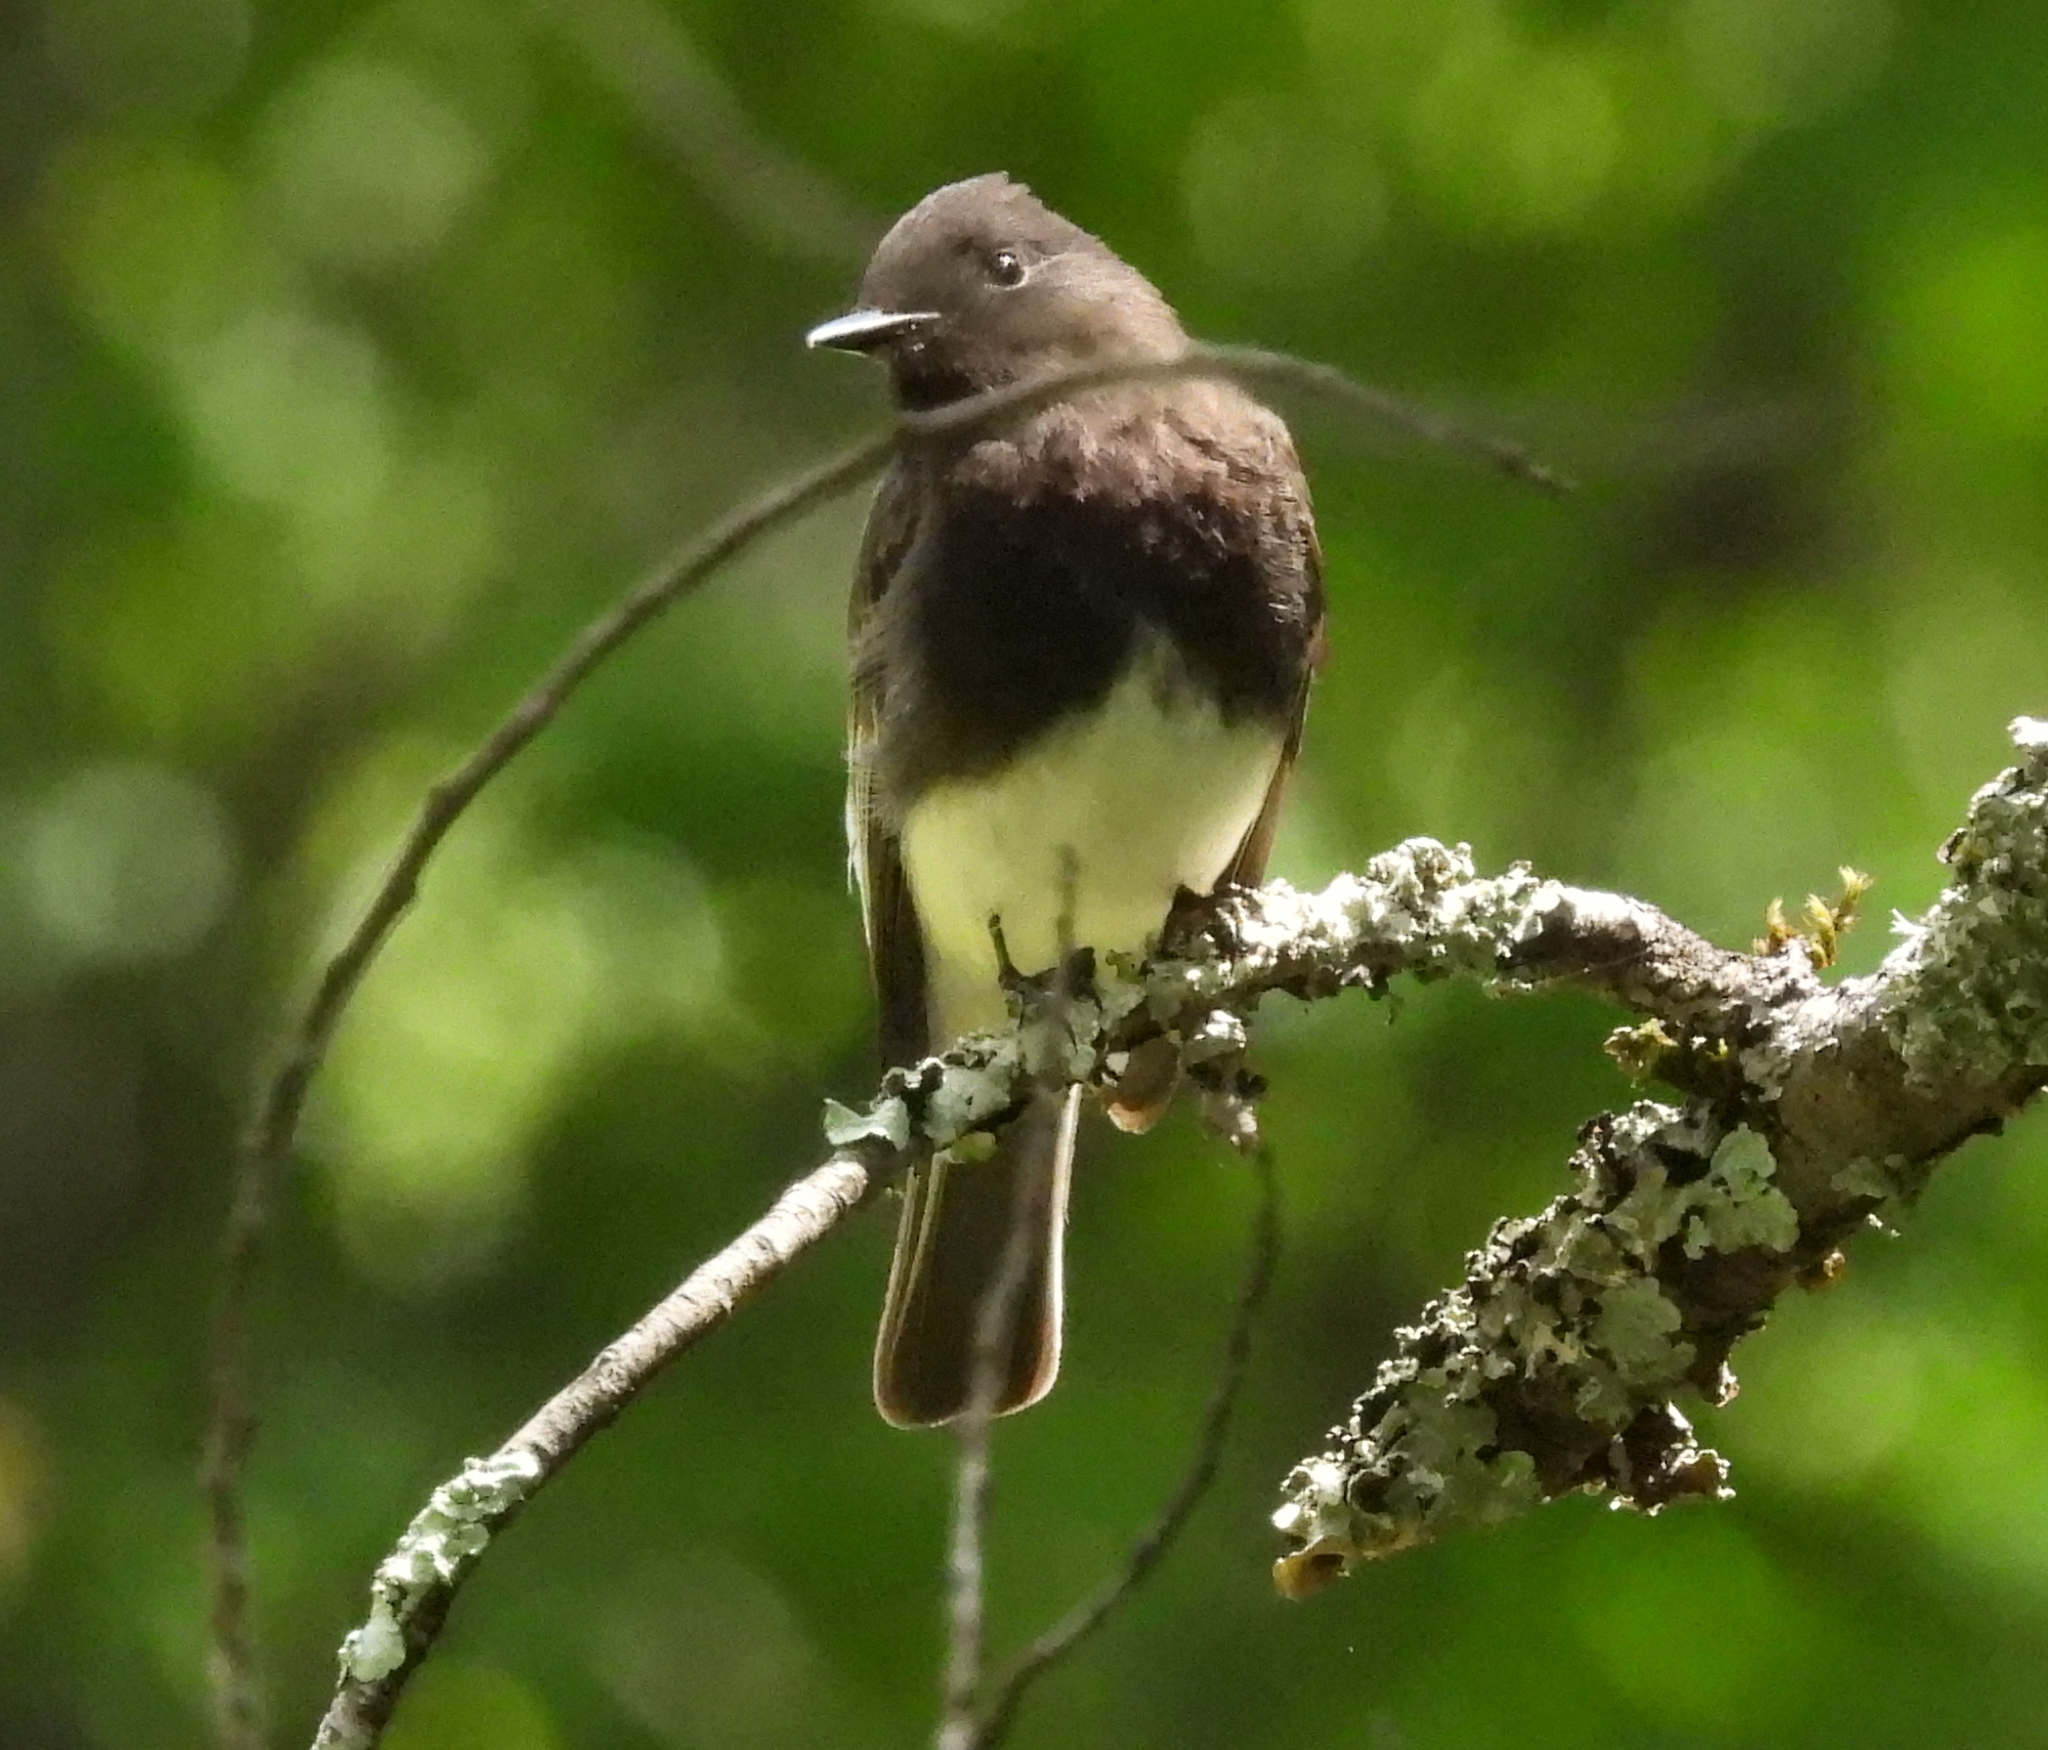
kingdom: Animalia
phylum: Chordata
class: Aves
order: Passeriformes
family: Tyrannidae
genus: Sayornis
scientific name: Sayornis nigricans
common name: Black phoebe
